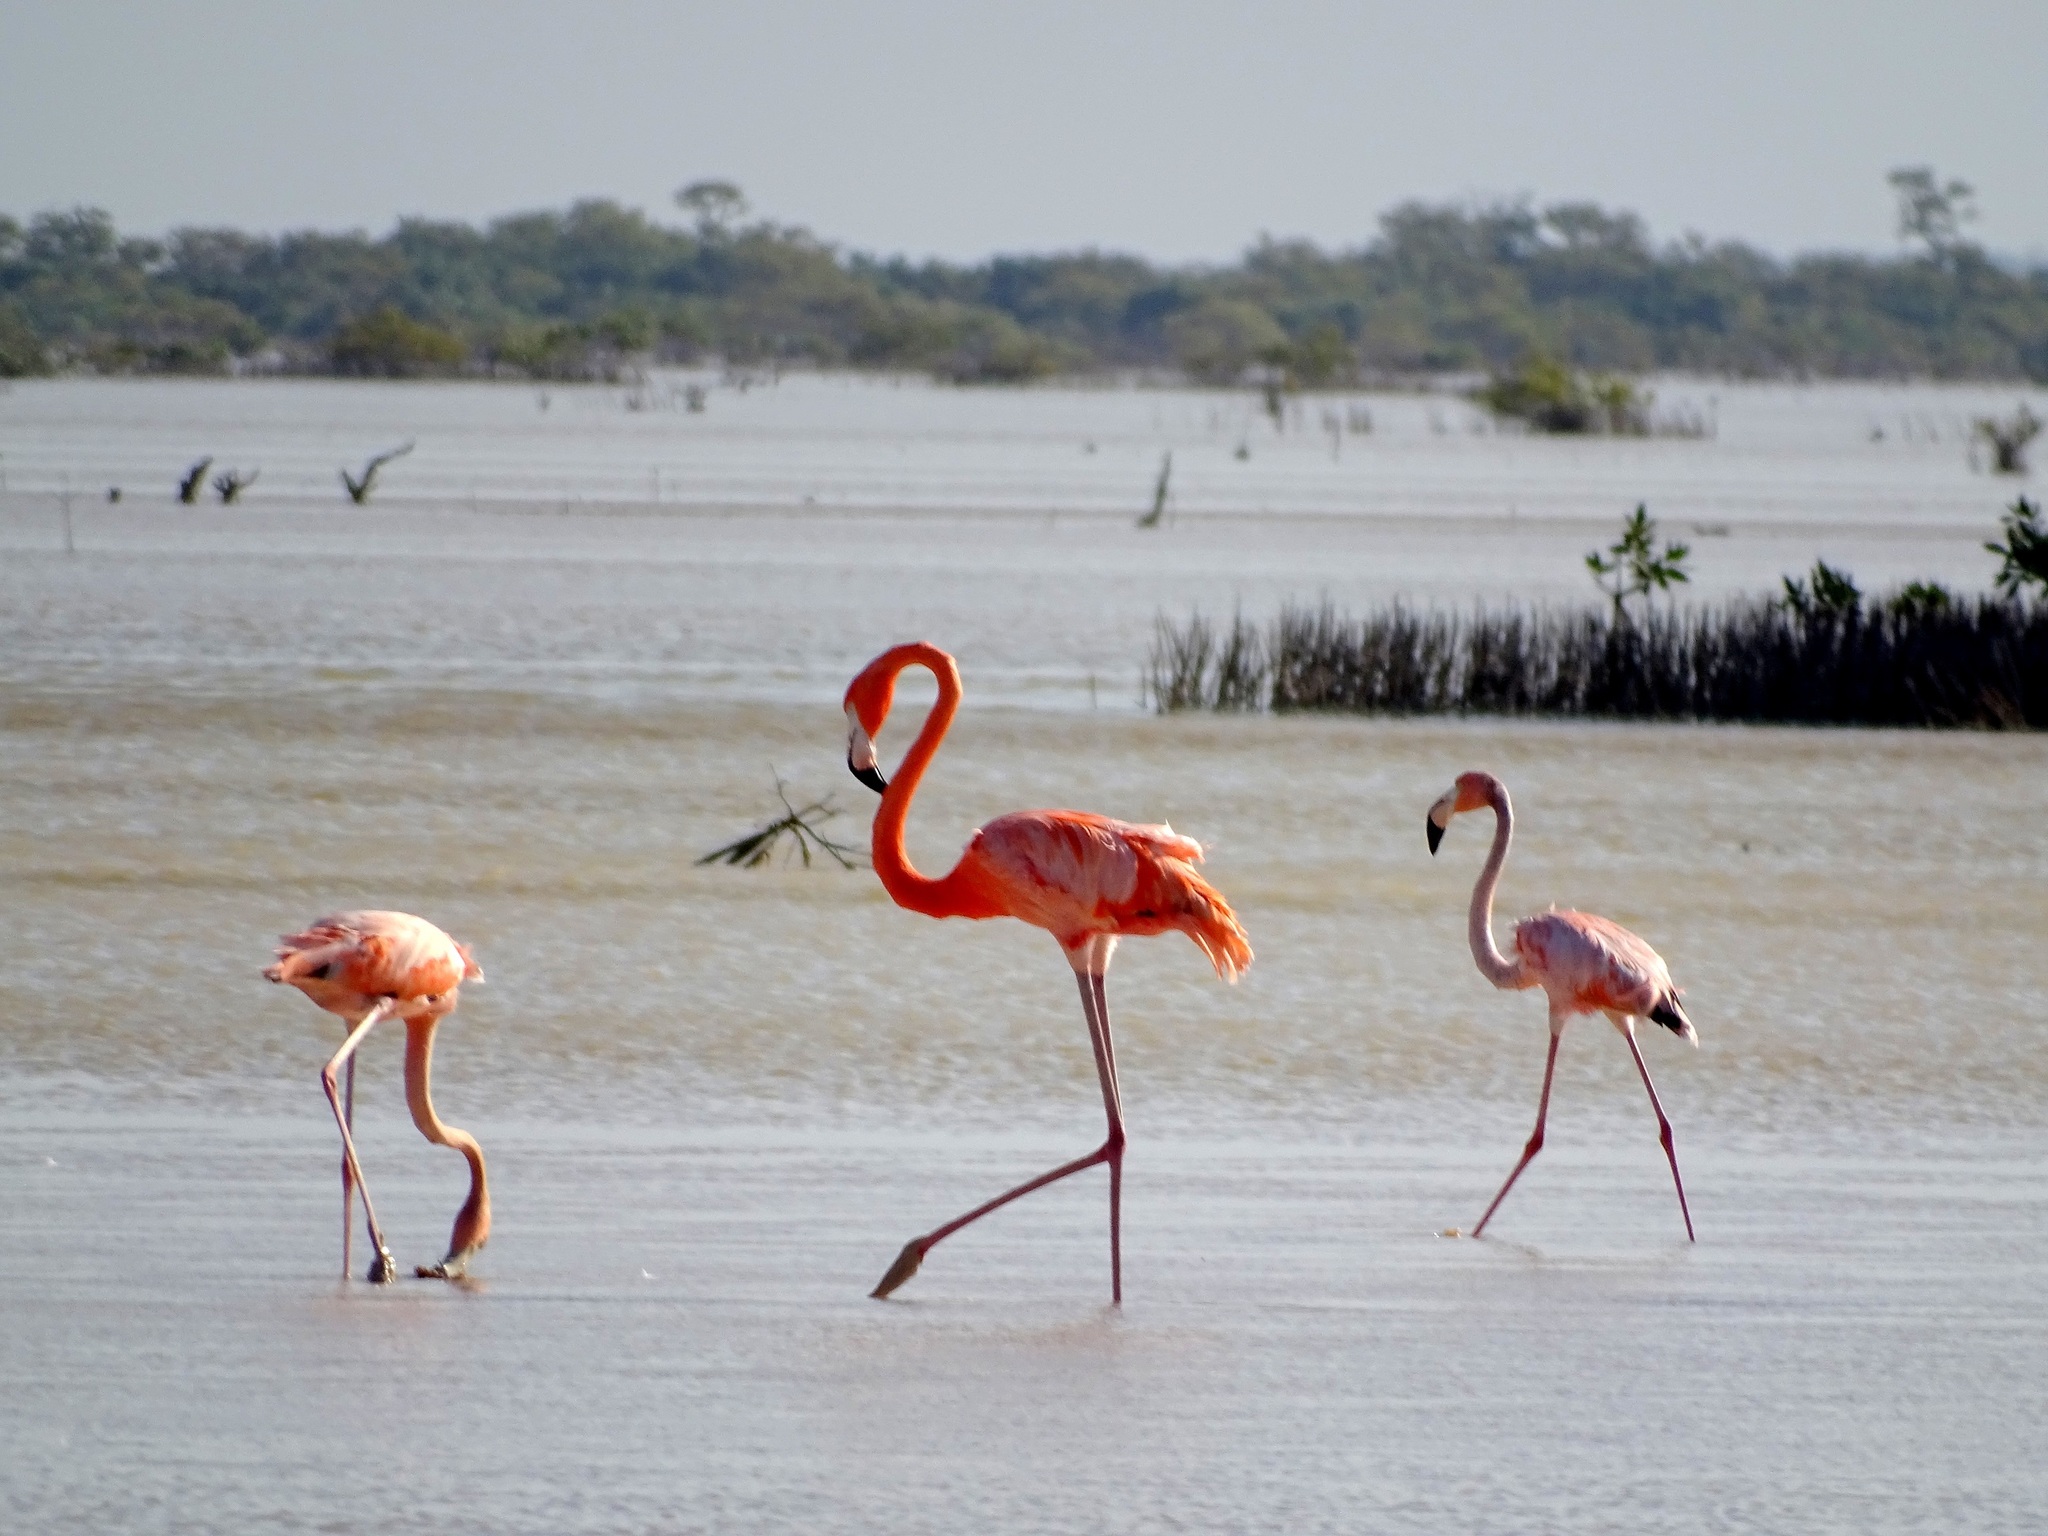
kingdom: Animalia
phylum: Chordata
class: Aves
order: Phoenicopteriformes
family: Phoenicopteridae
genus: Phoenicopterus
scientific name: Phoenicopterus ruber
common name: American flamingo
